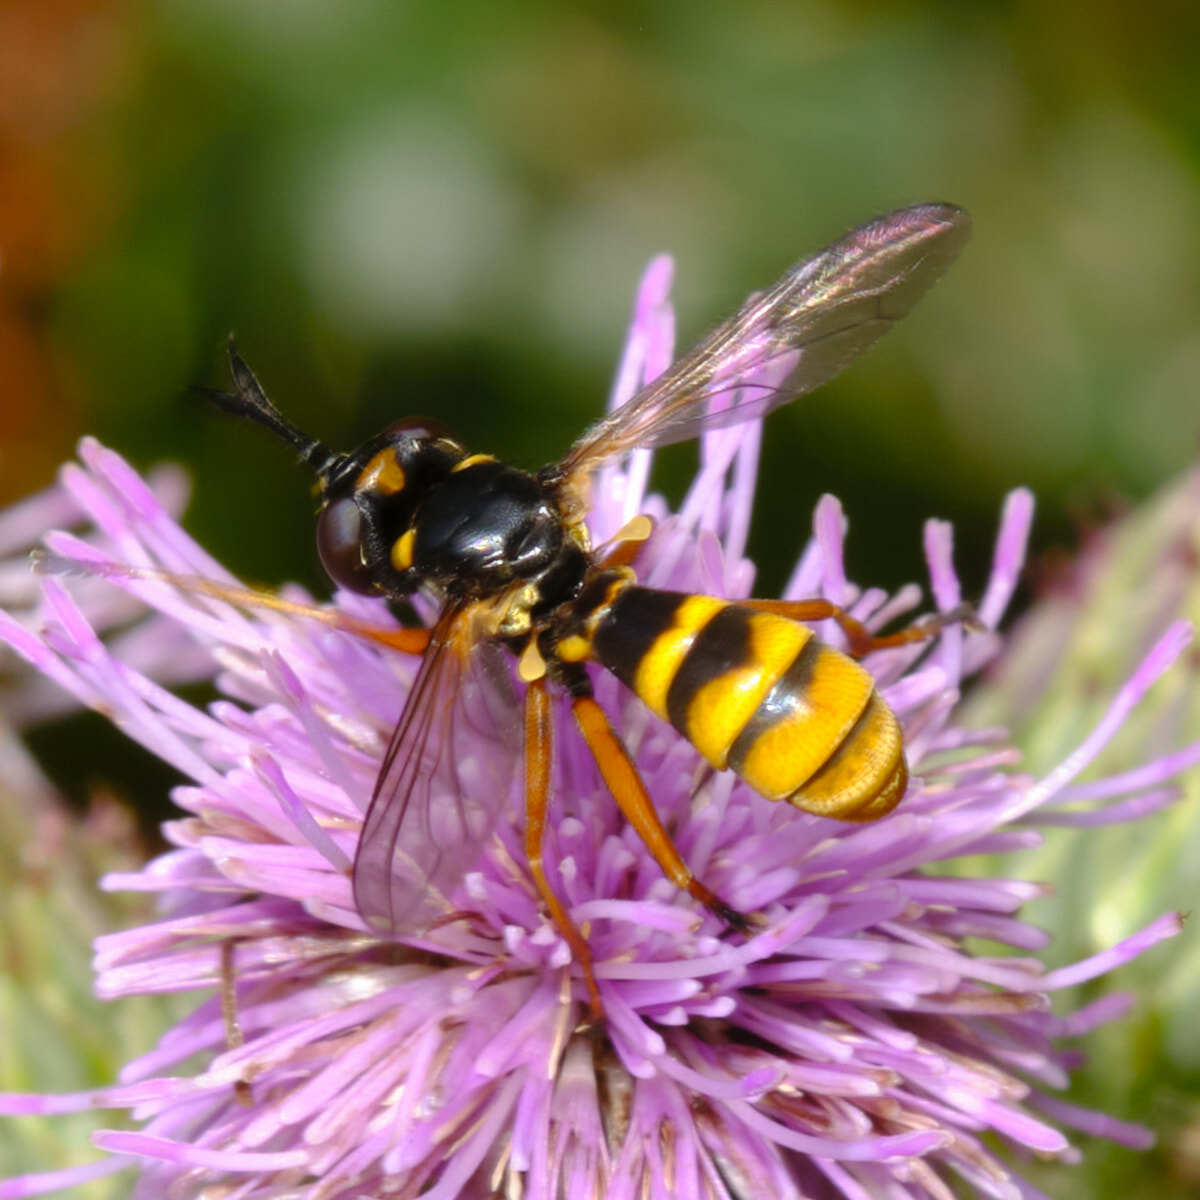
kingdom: Animalia
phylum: Arthropoda
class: Insecta
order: Diptera
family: Conopidae
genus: Conops
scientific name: Conops quadrifasciatus
